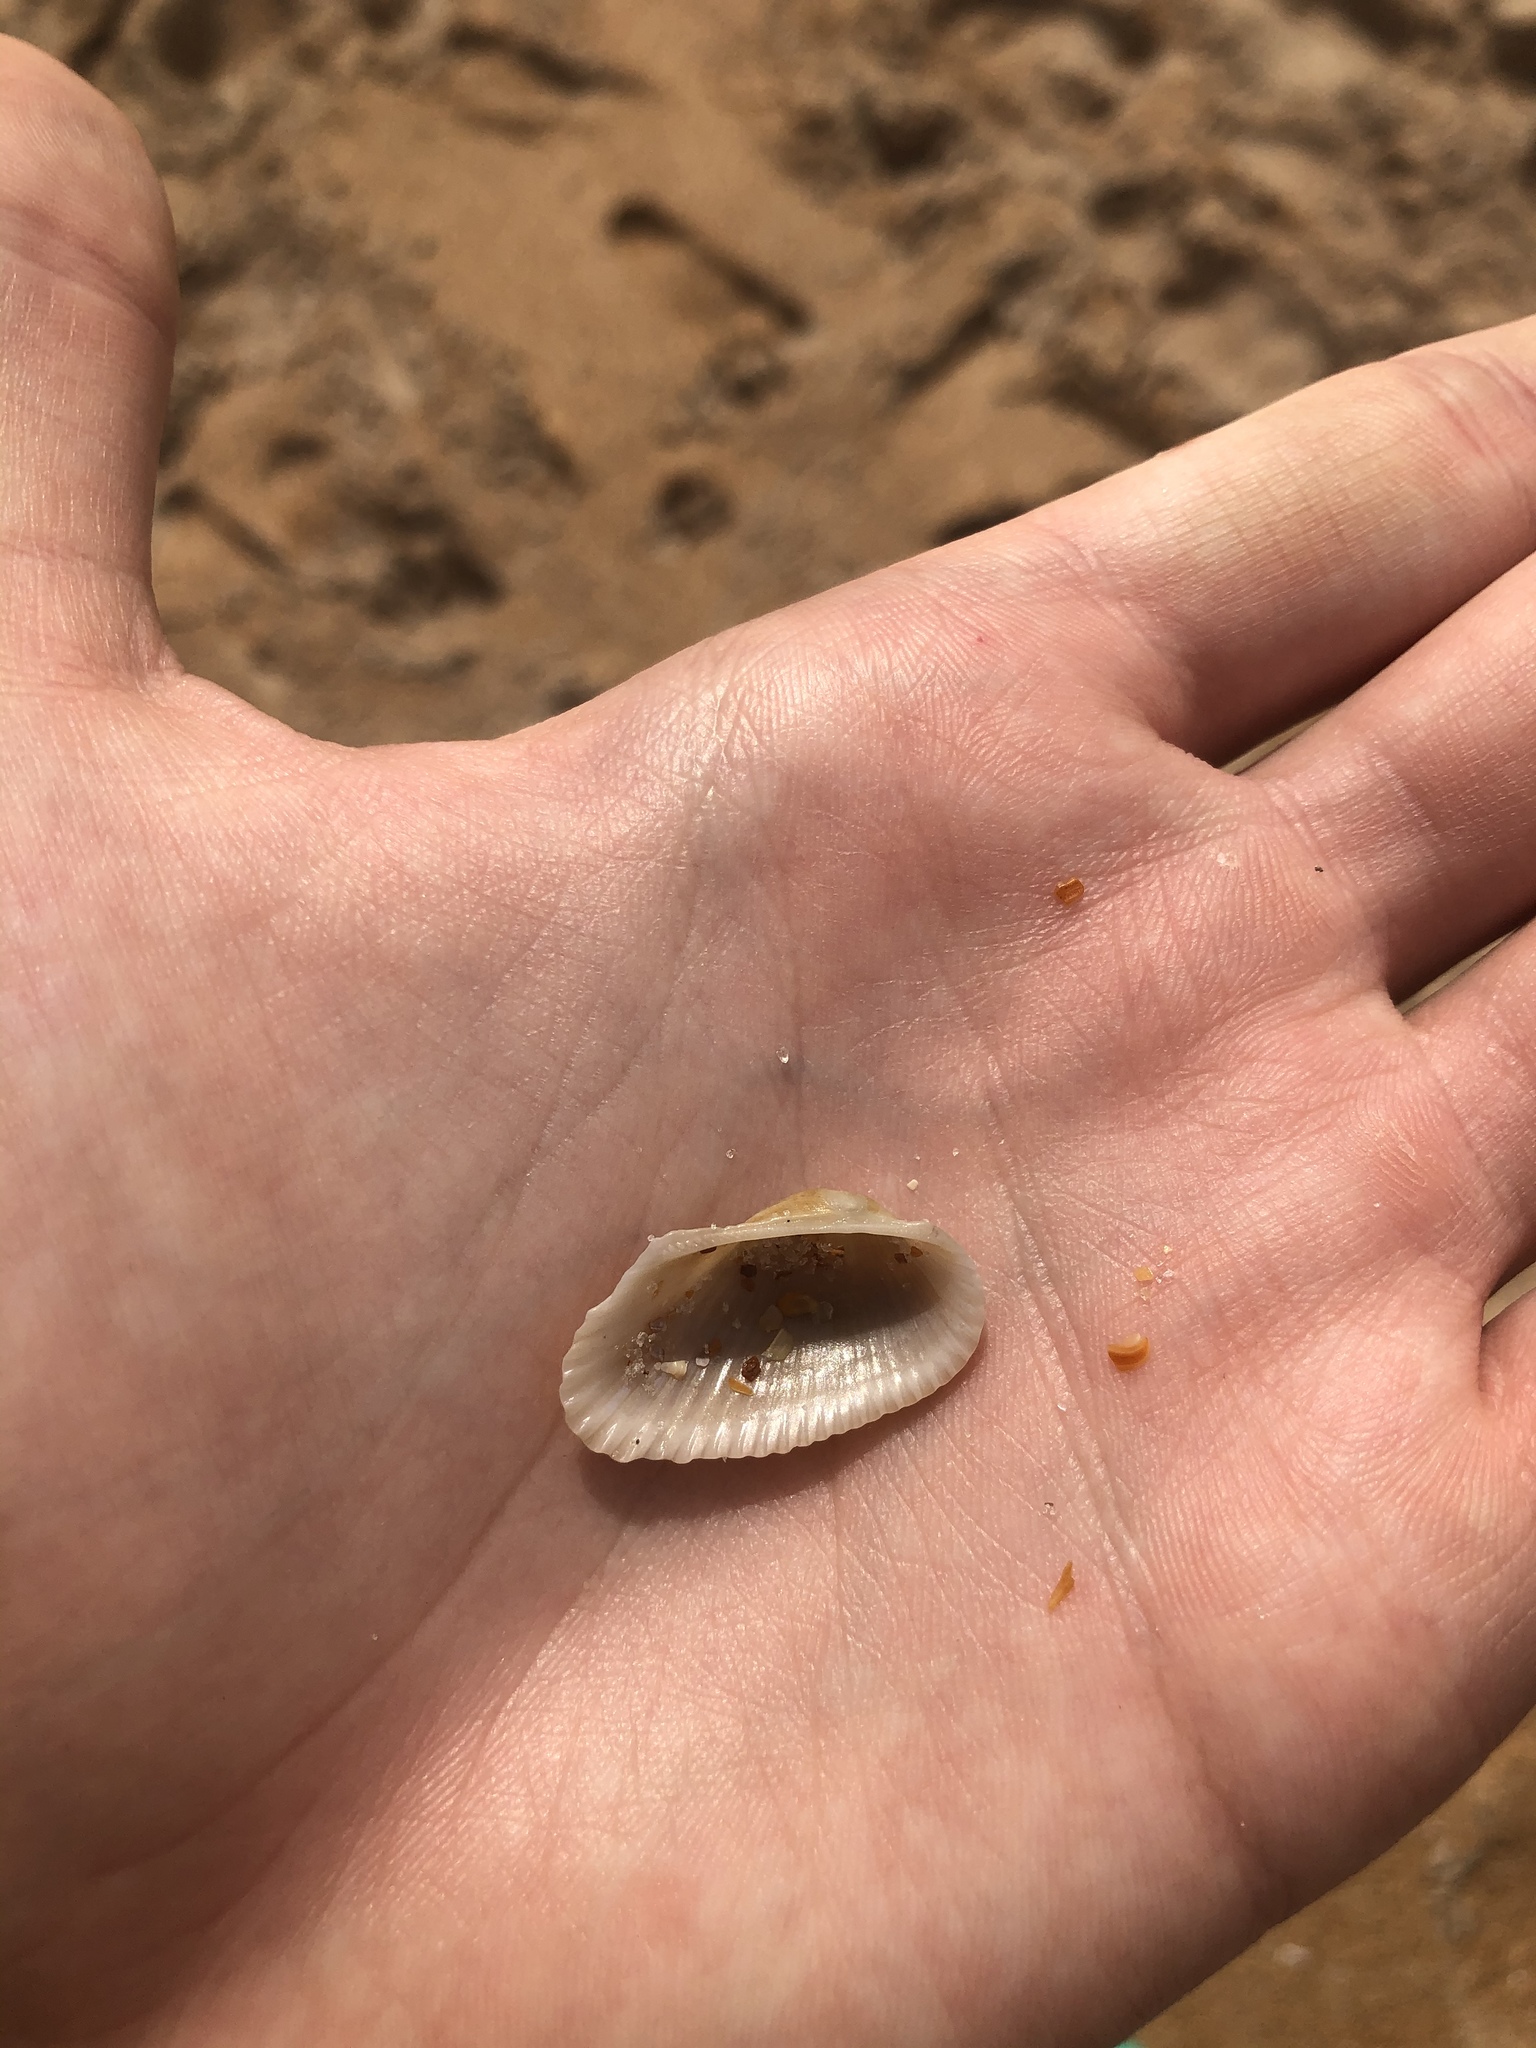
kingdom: Animalia
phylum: Mollusca
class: Bivalvia
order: Arcida
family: Arcidae
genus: Anadara
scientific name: Anadara transversa
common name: Transverse ark
